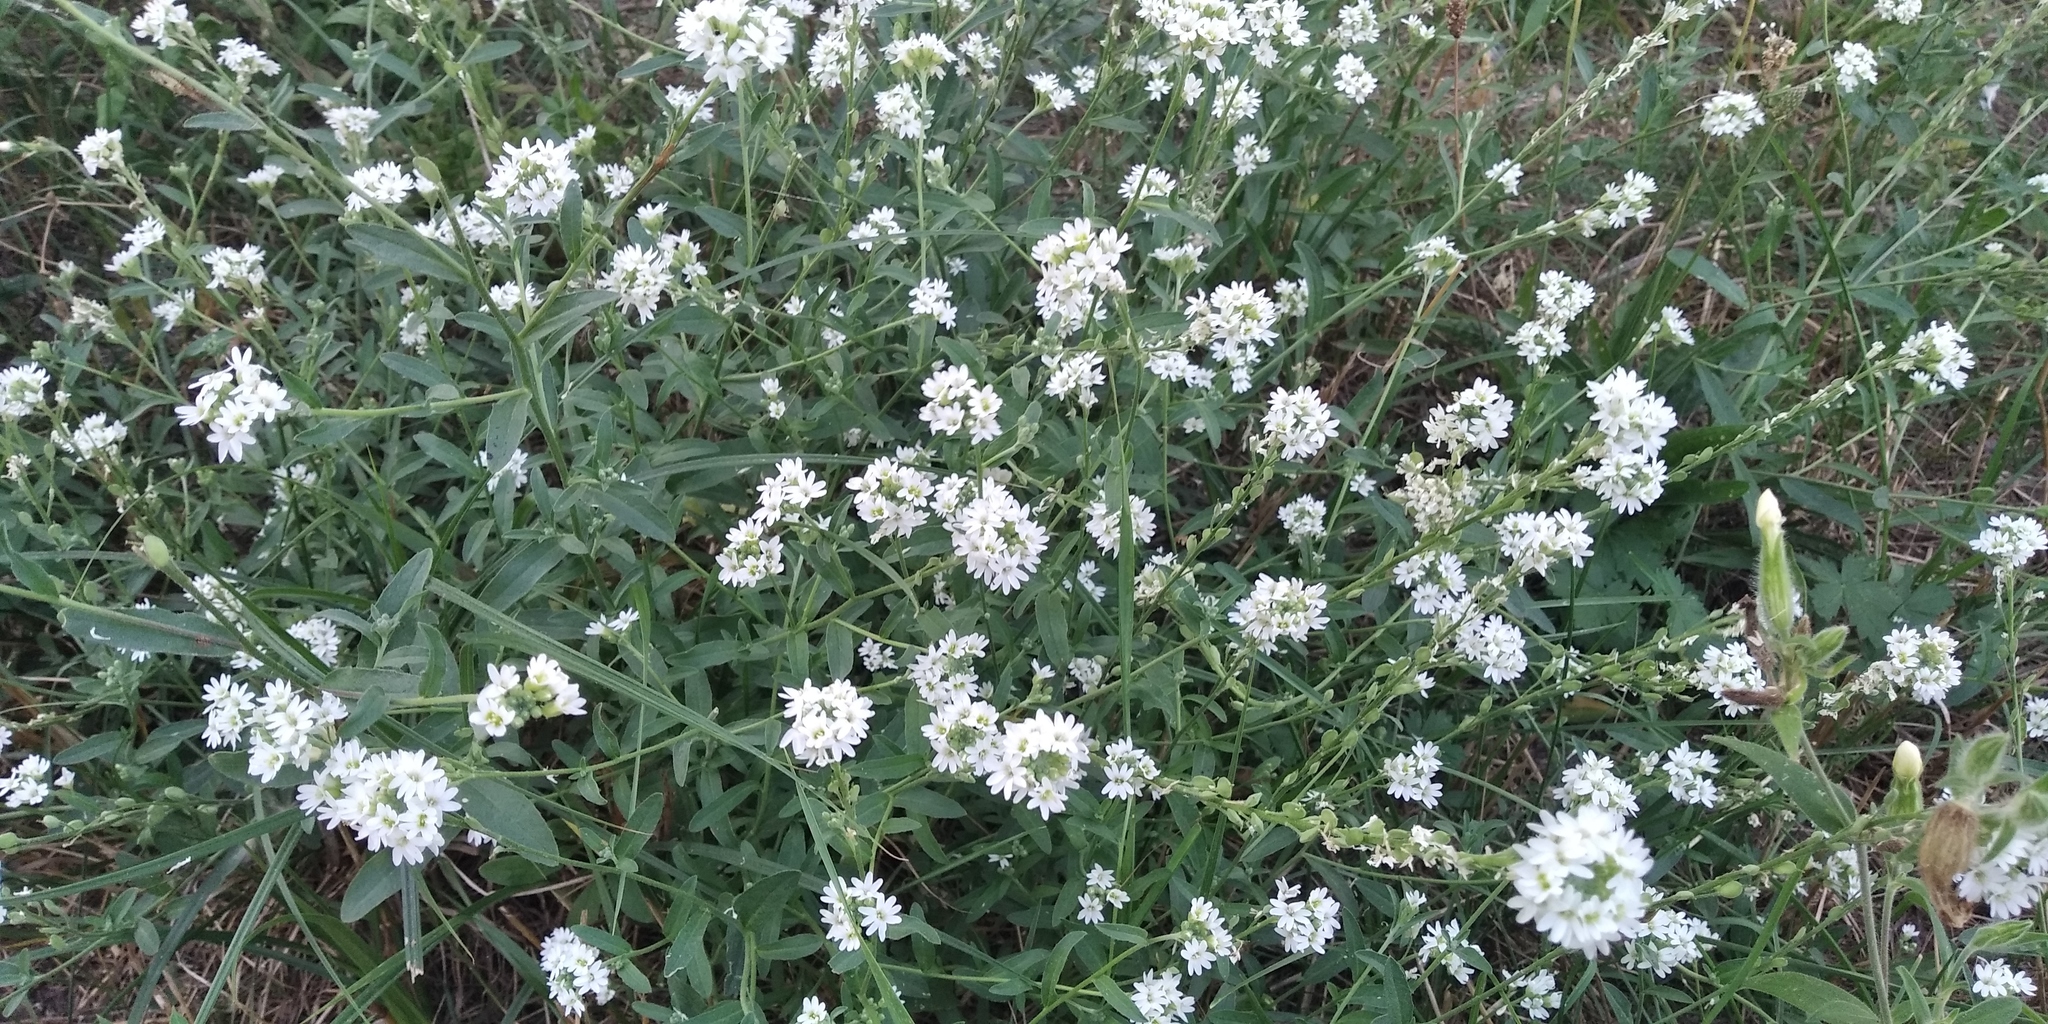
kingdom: Plantae
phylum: Tracheophyta
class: Magnoliopsida
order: Brassicales
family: Brassicaceae
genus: Berteroa
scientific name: Berteroa incana
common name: Hoary alison
